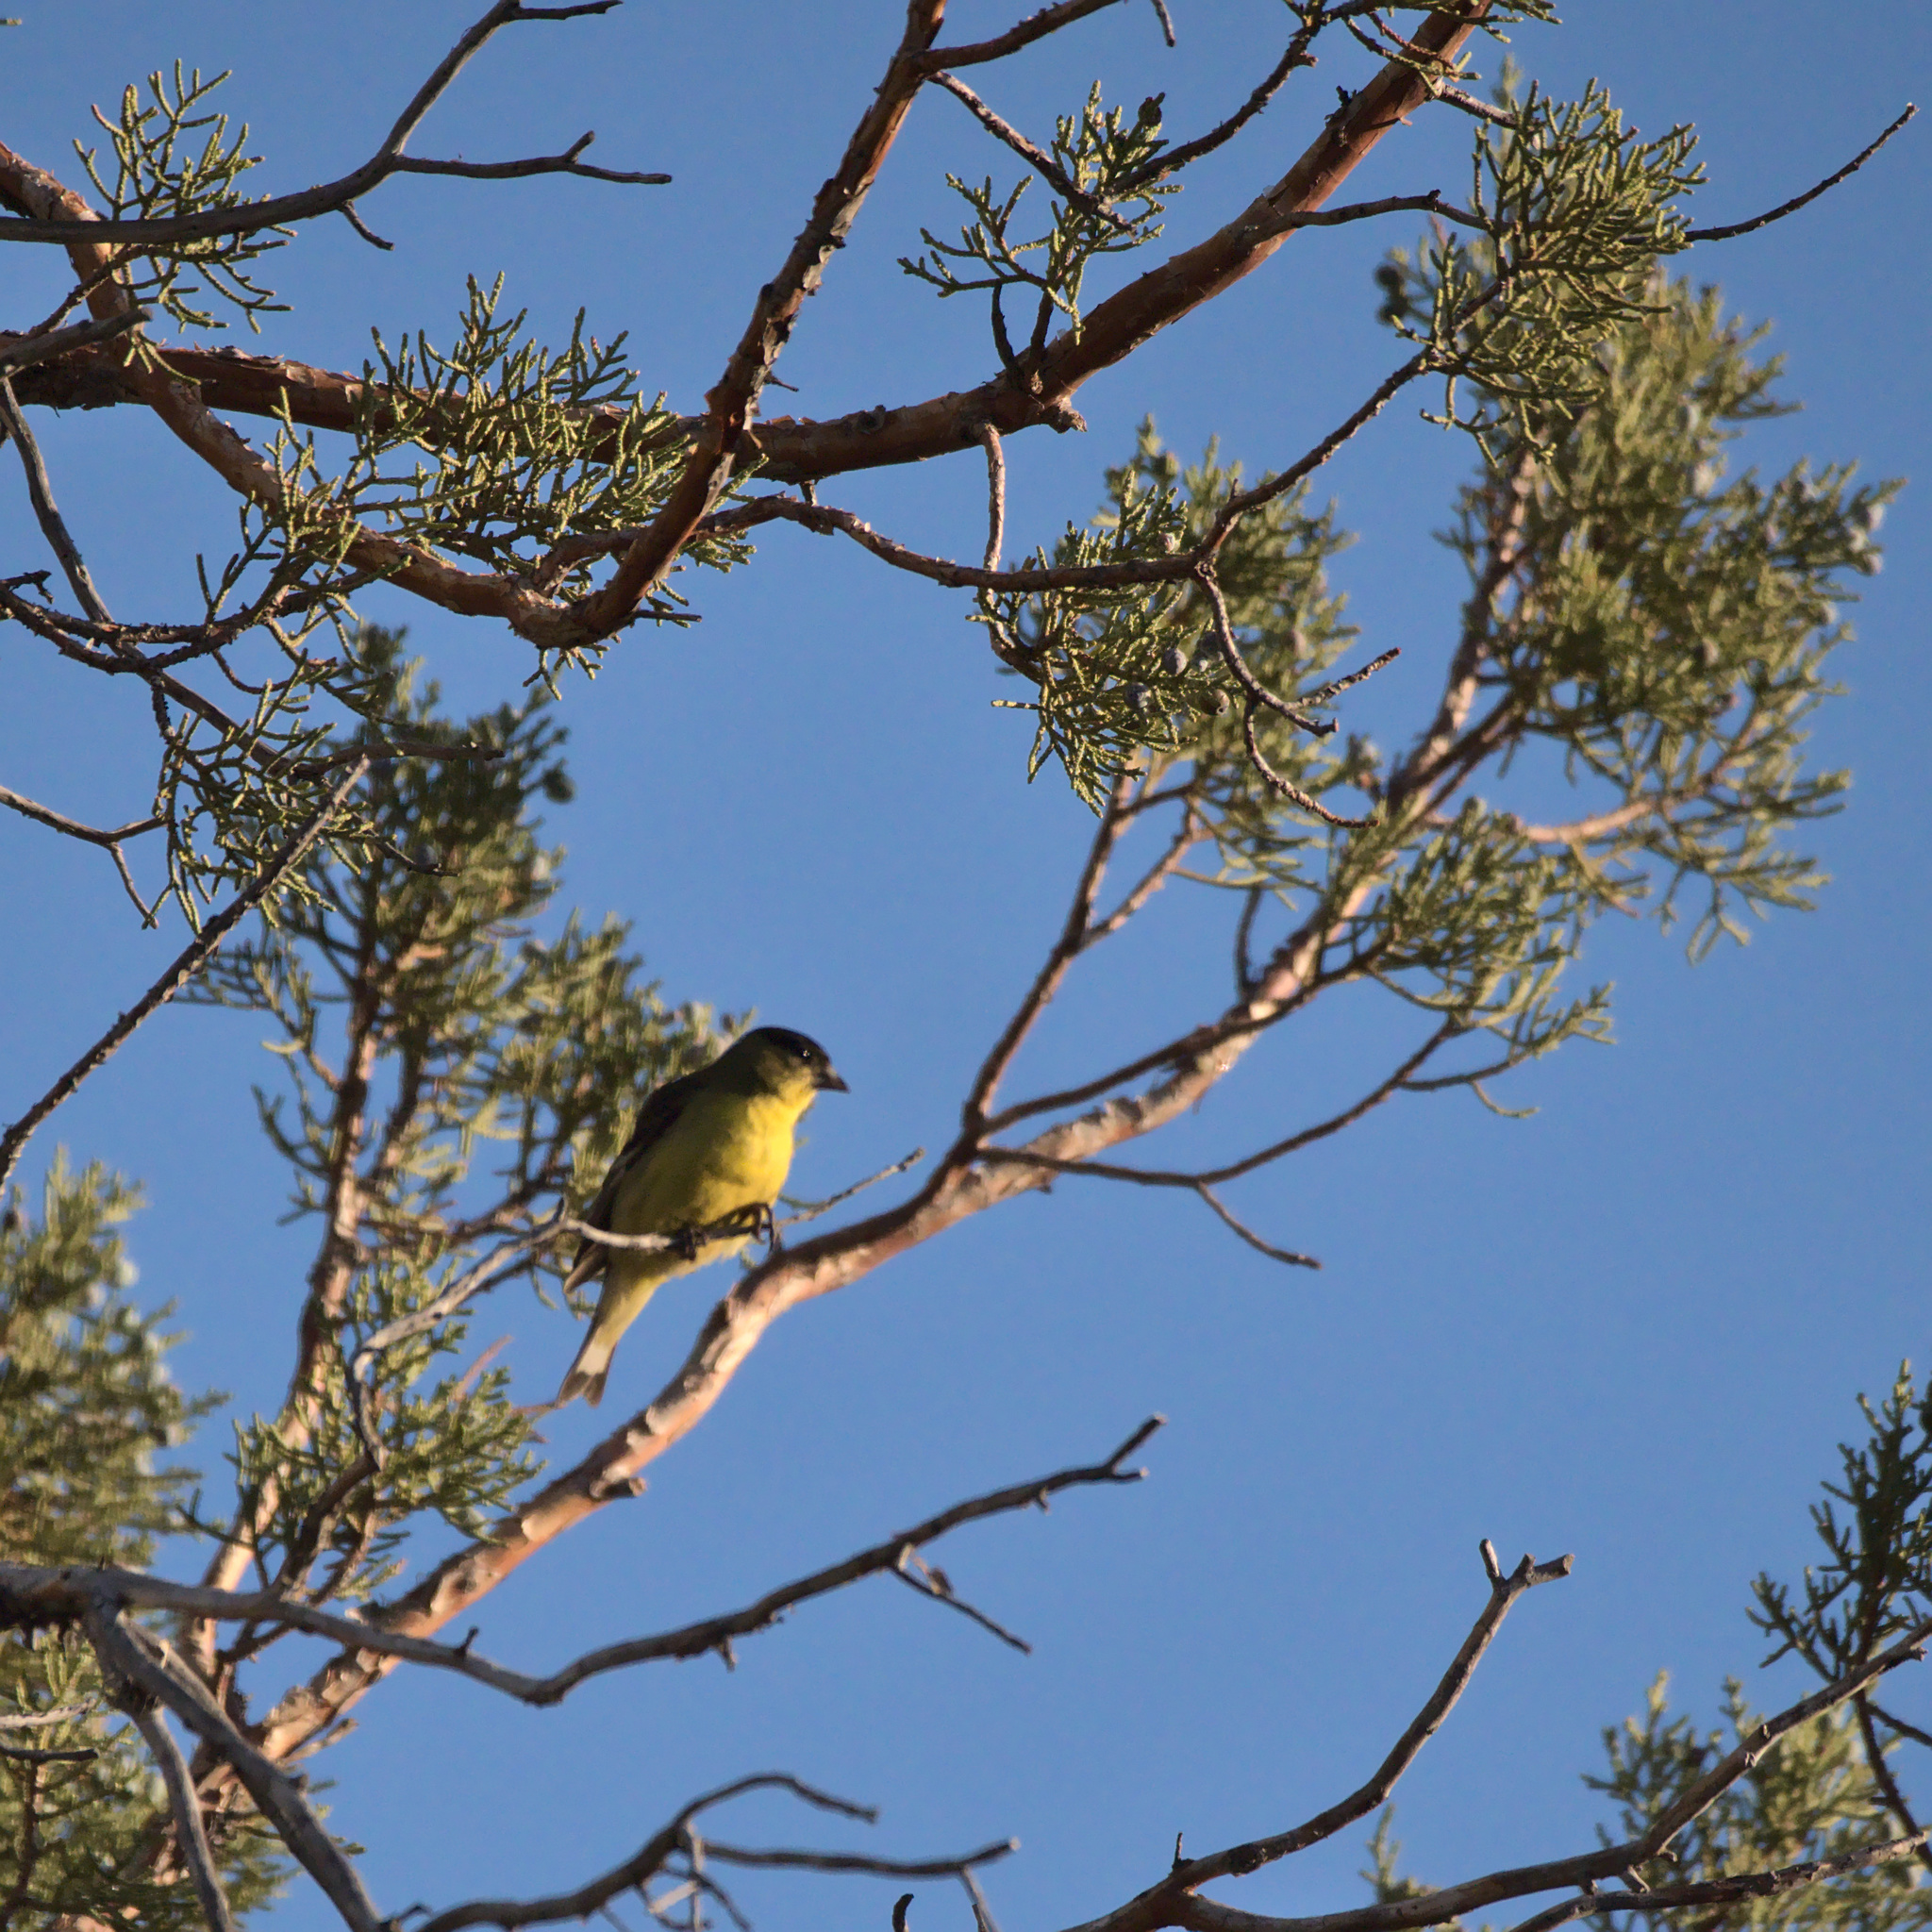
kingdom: Animalia
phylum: Chordata
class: Aves
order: Passeriformes
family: Fringillidae
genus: Spinus
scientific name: Spinus psaltria
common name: Lesser goldfinch
